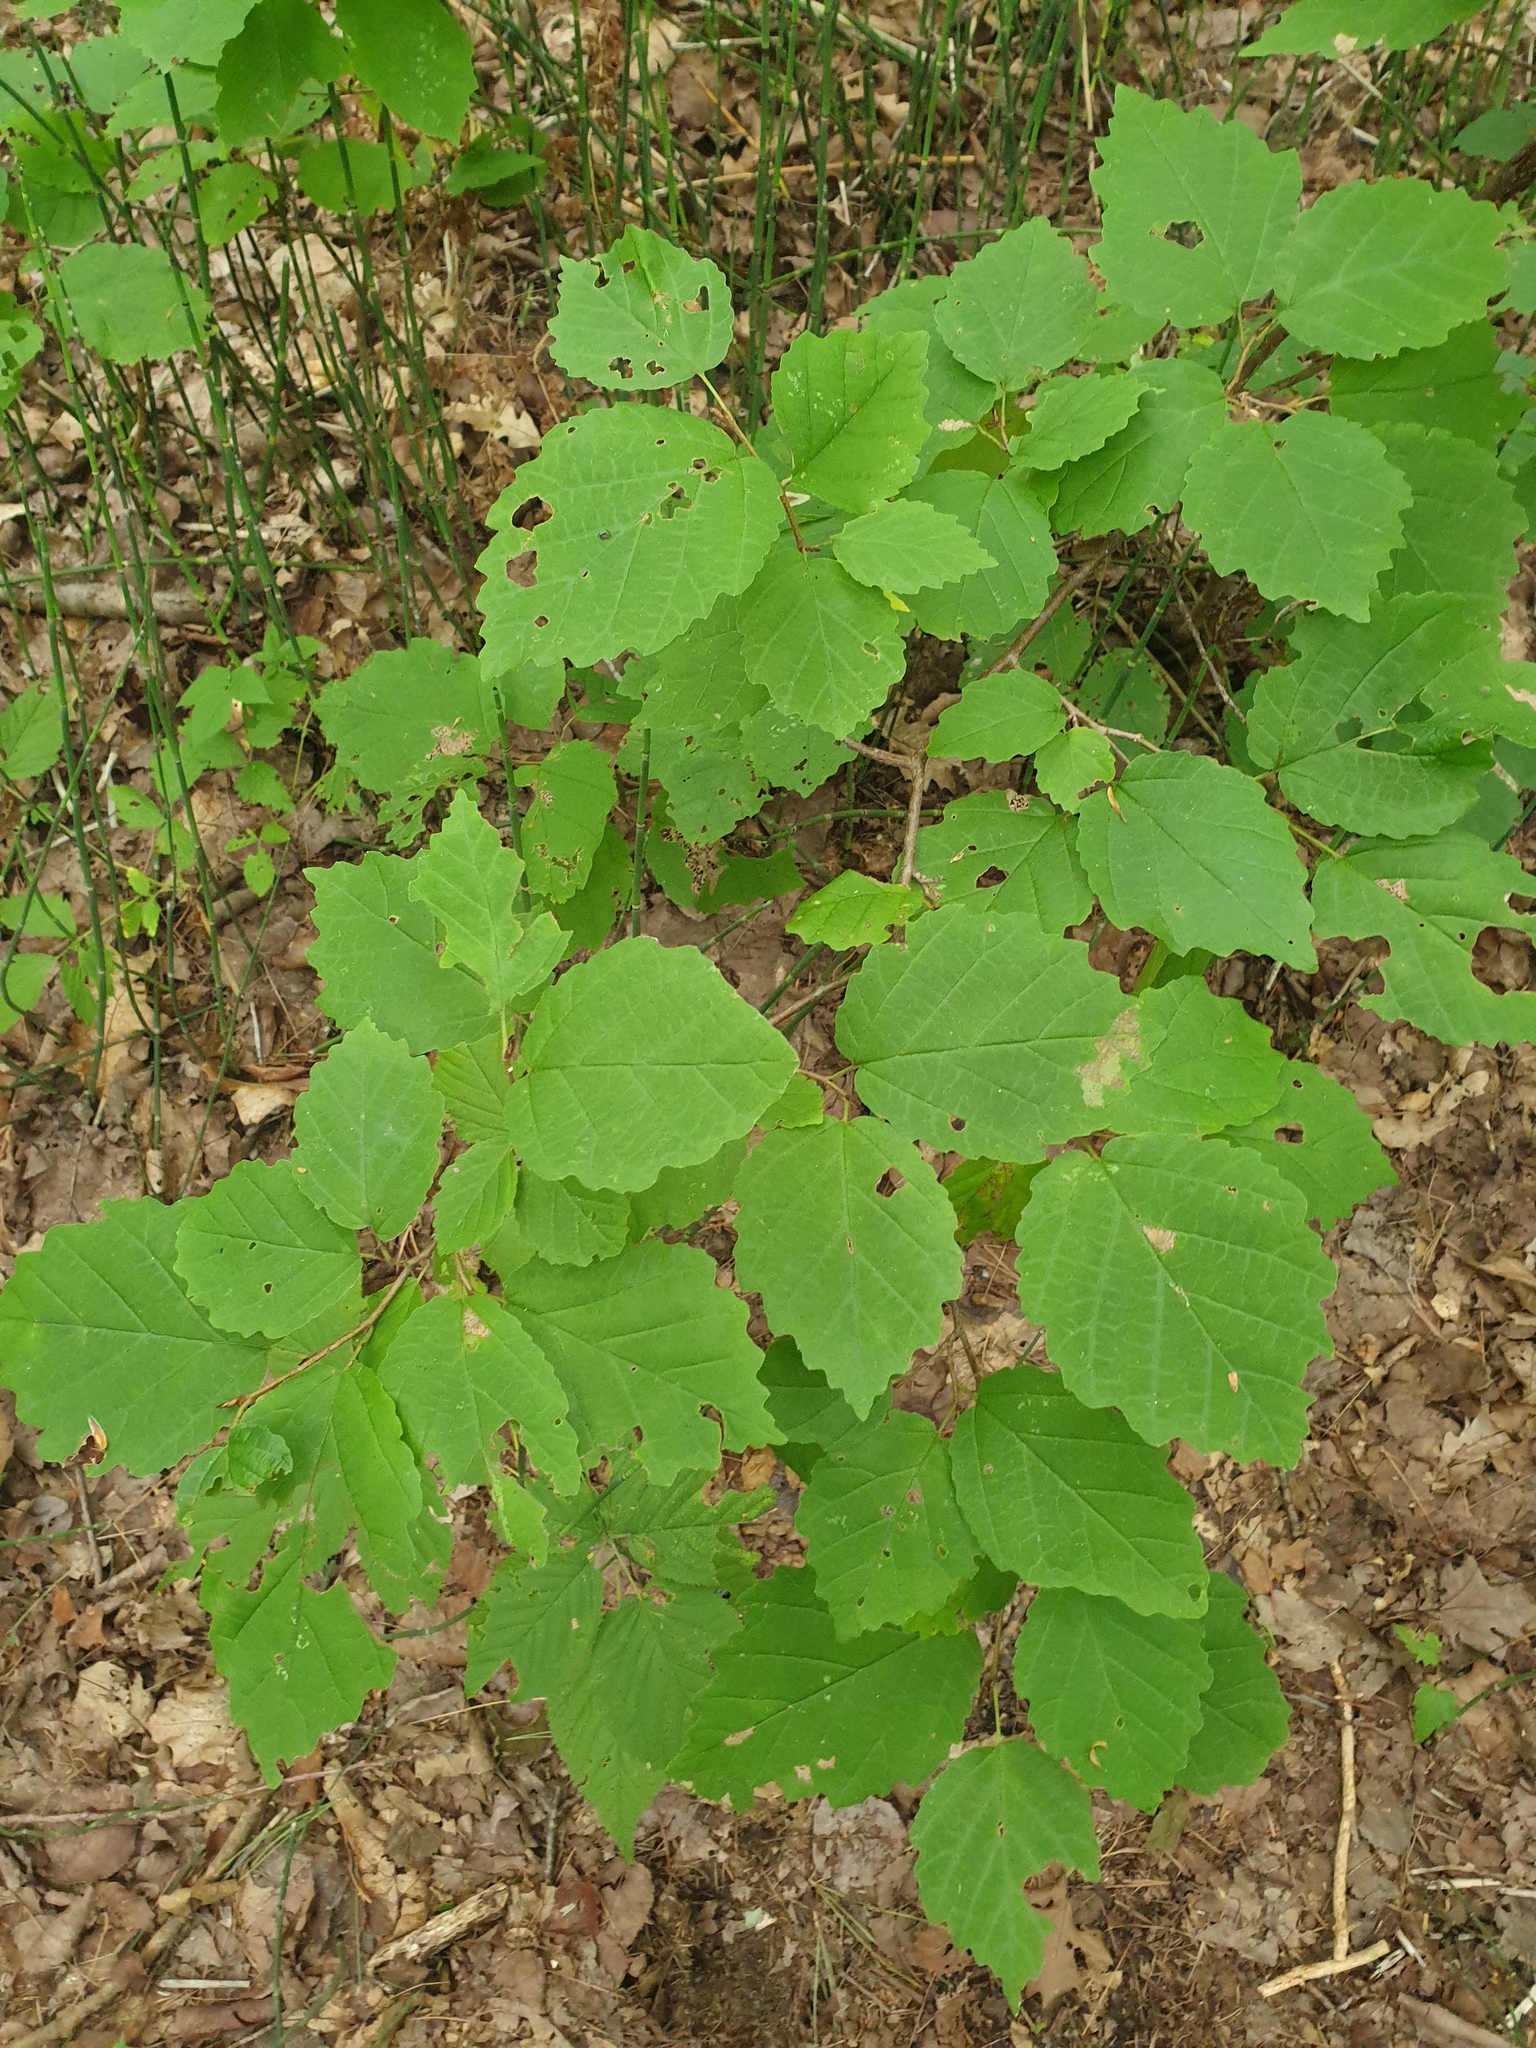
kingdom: Plantae
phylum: Tracheophyta
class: Magnoliopsida
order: Saxifragales
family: Hamamelidaceae
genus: Hamamelis
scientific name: Hamamelis virginiana
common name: Witch-hazel
